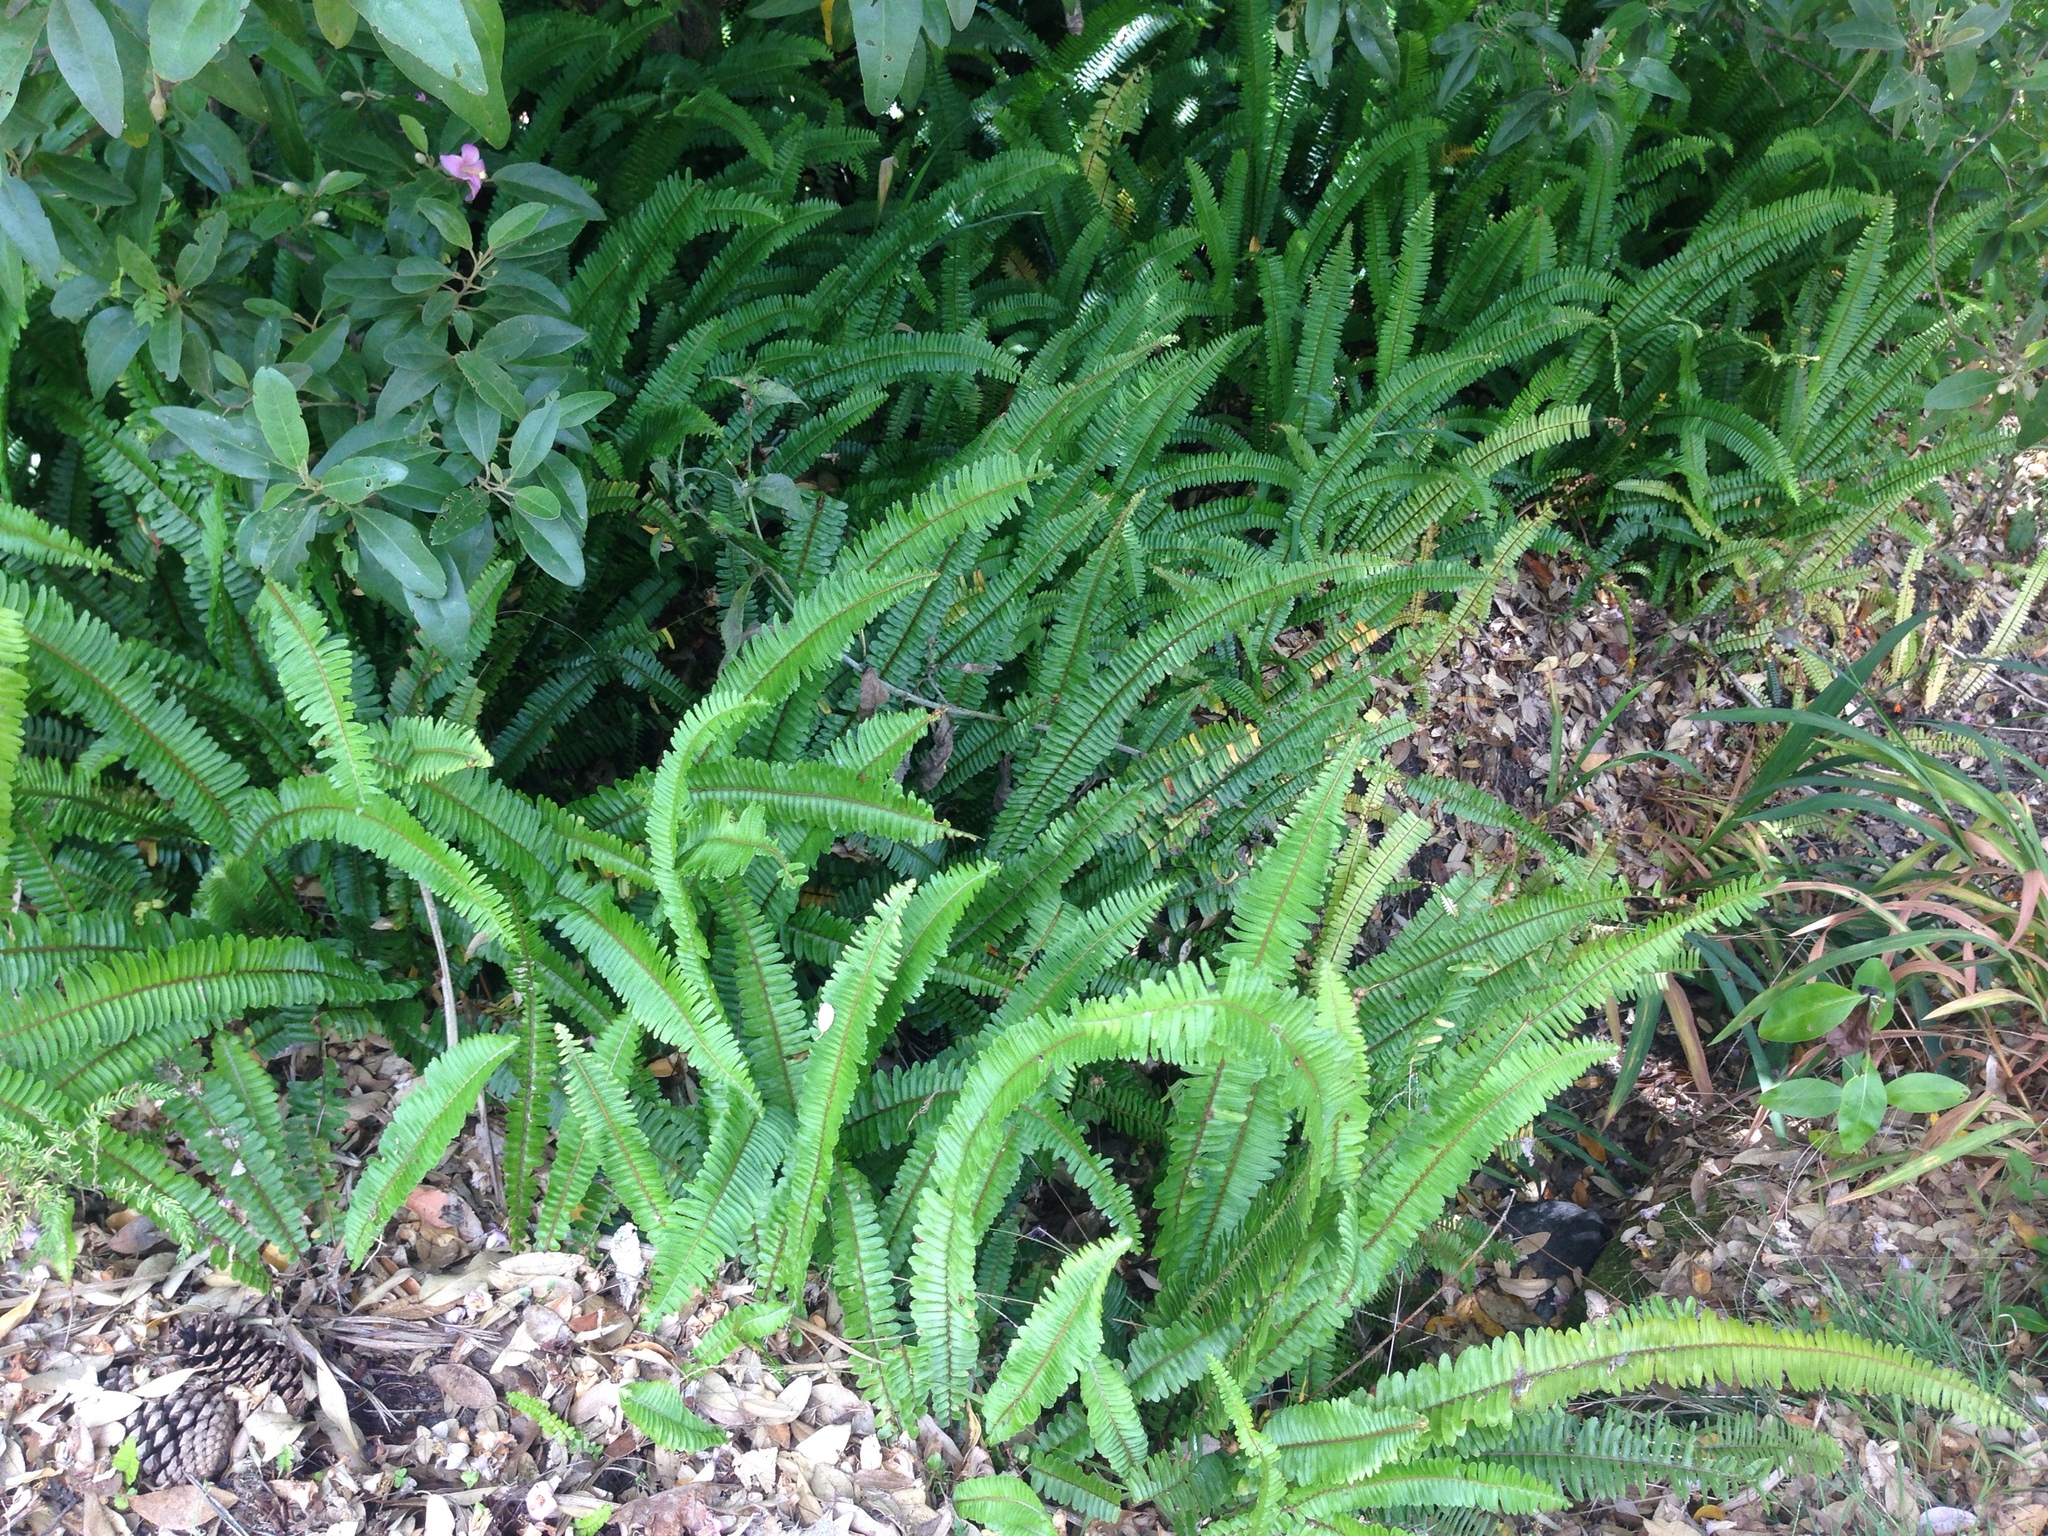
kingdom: Plantae
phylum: Tracheophyta
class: Polypodiopsida
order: Polypodiales
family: Nephrolepidaceae
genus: Nephrolepis
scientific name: Nephrolepis cordifolia
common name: Narrow swordfern
